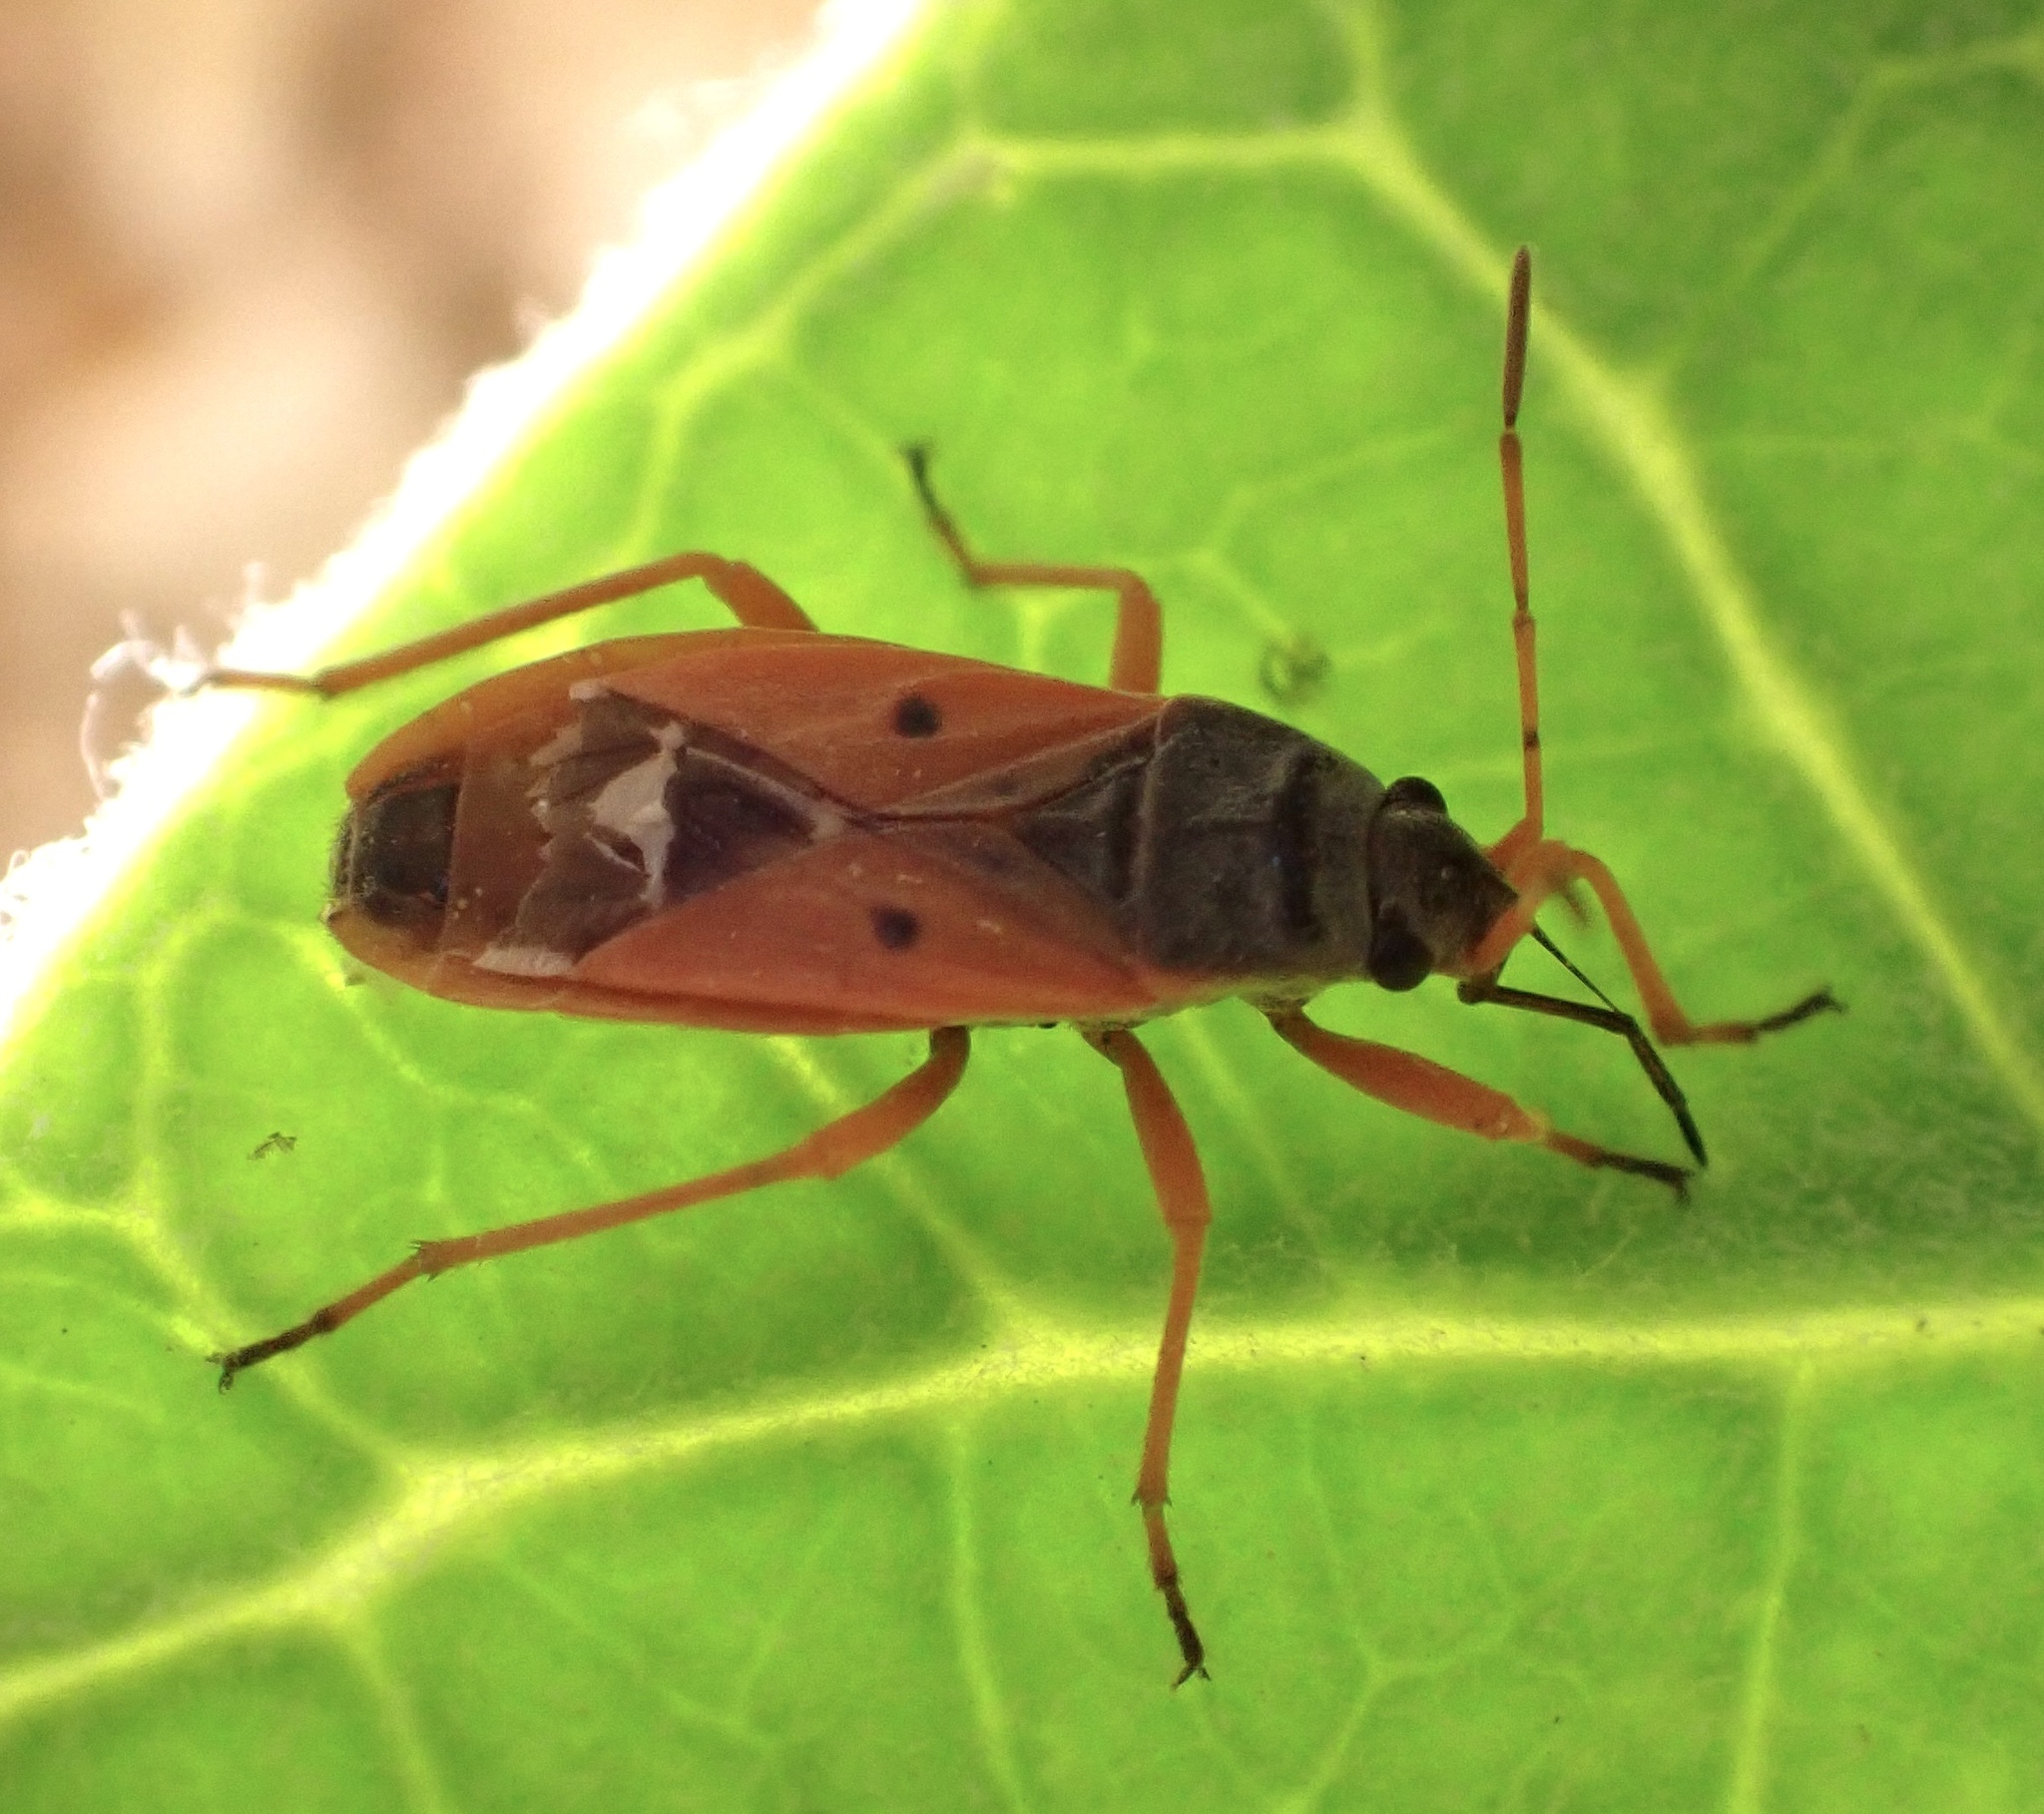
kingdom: Animalia
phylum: Arthropoda
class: Insecta
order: Hemiptera
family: Lygaeidae
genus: Cosmopleurus
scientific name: Cosmopleurus fulvipes
